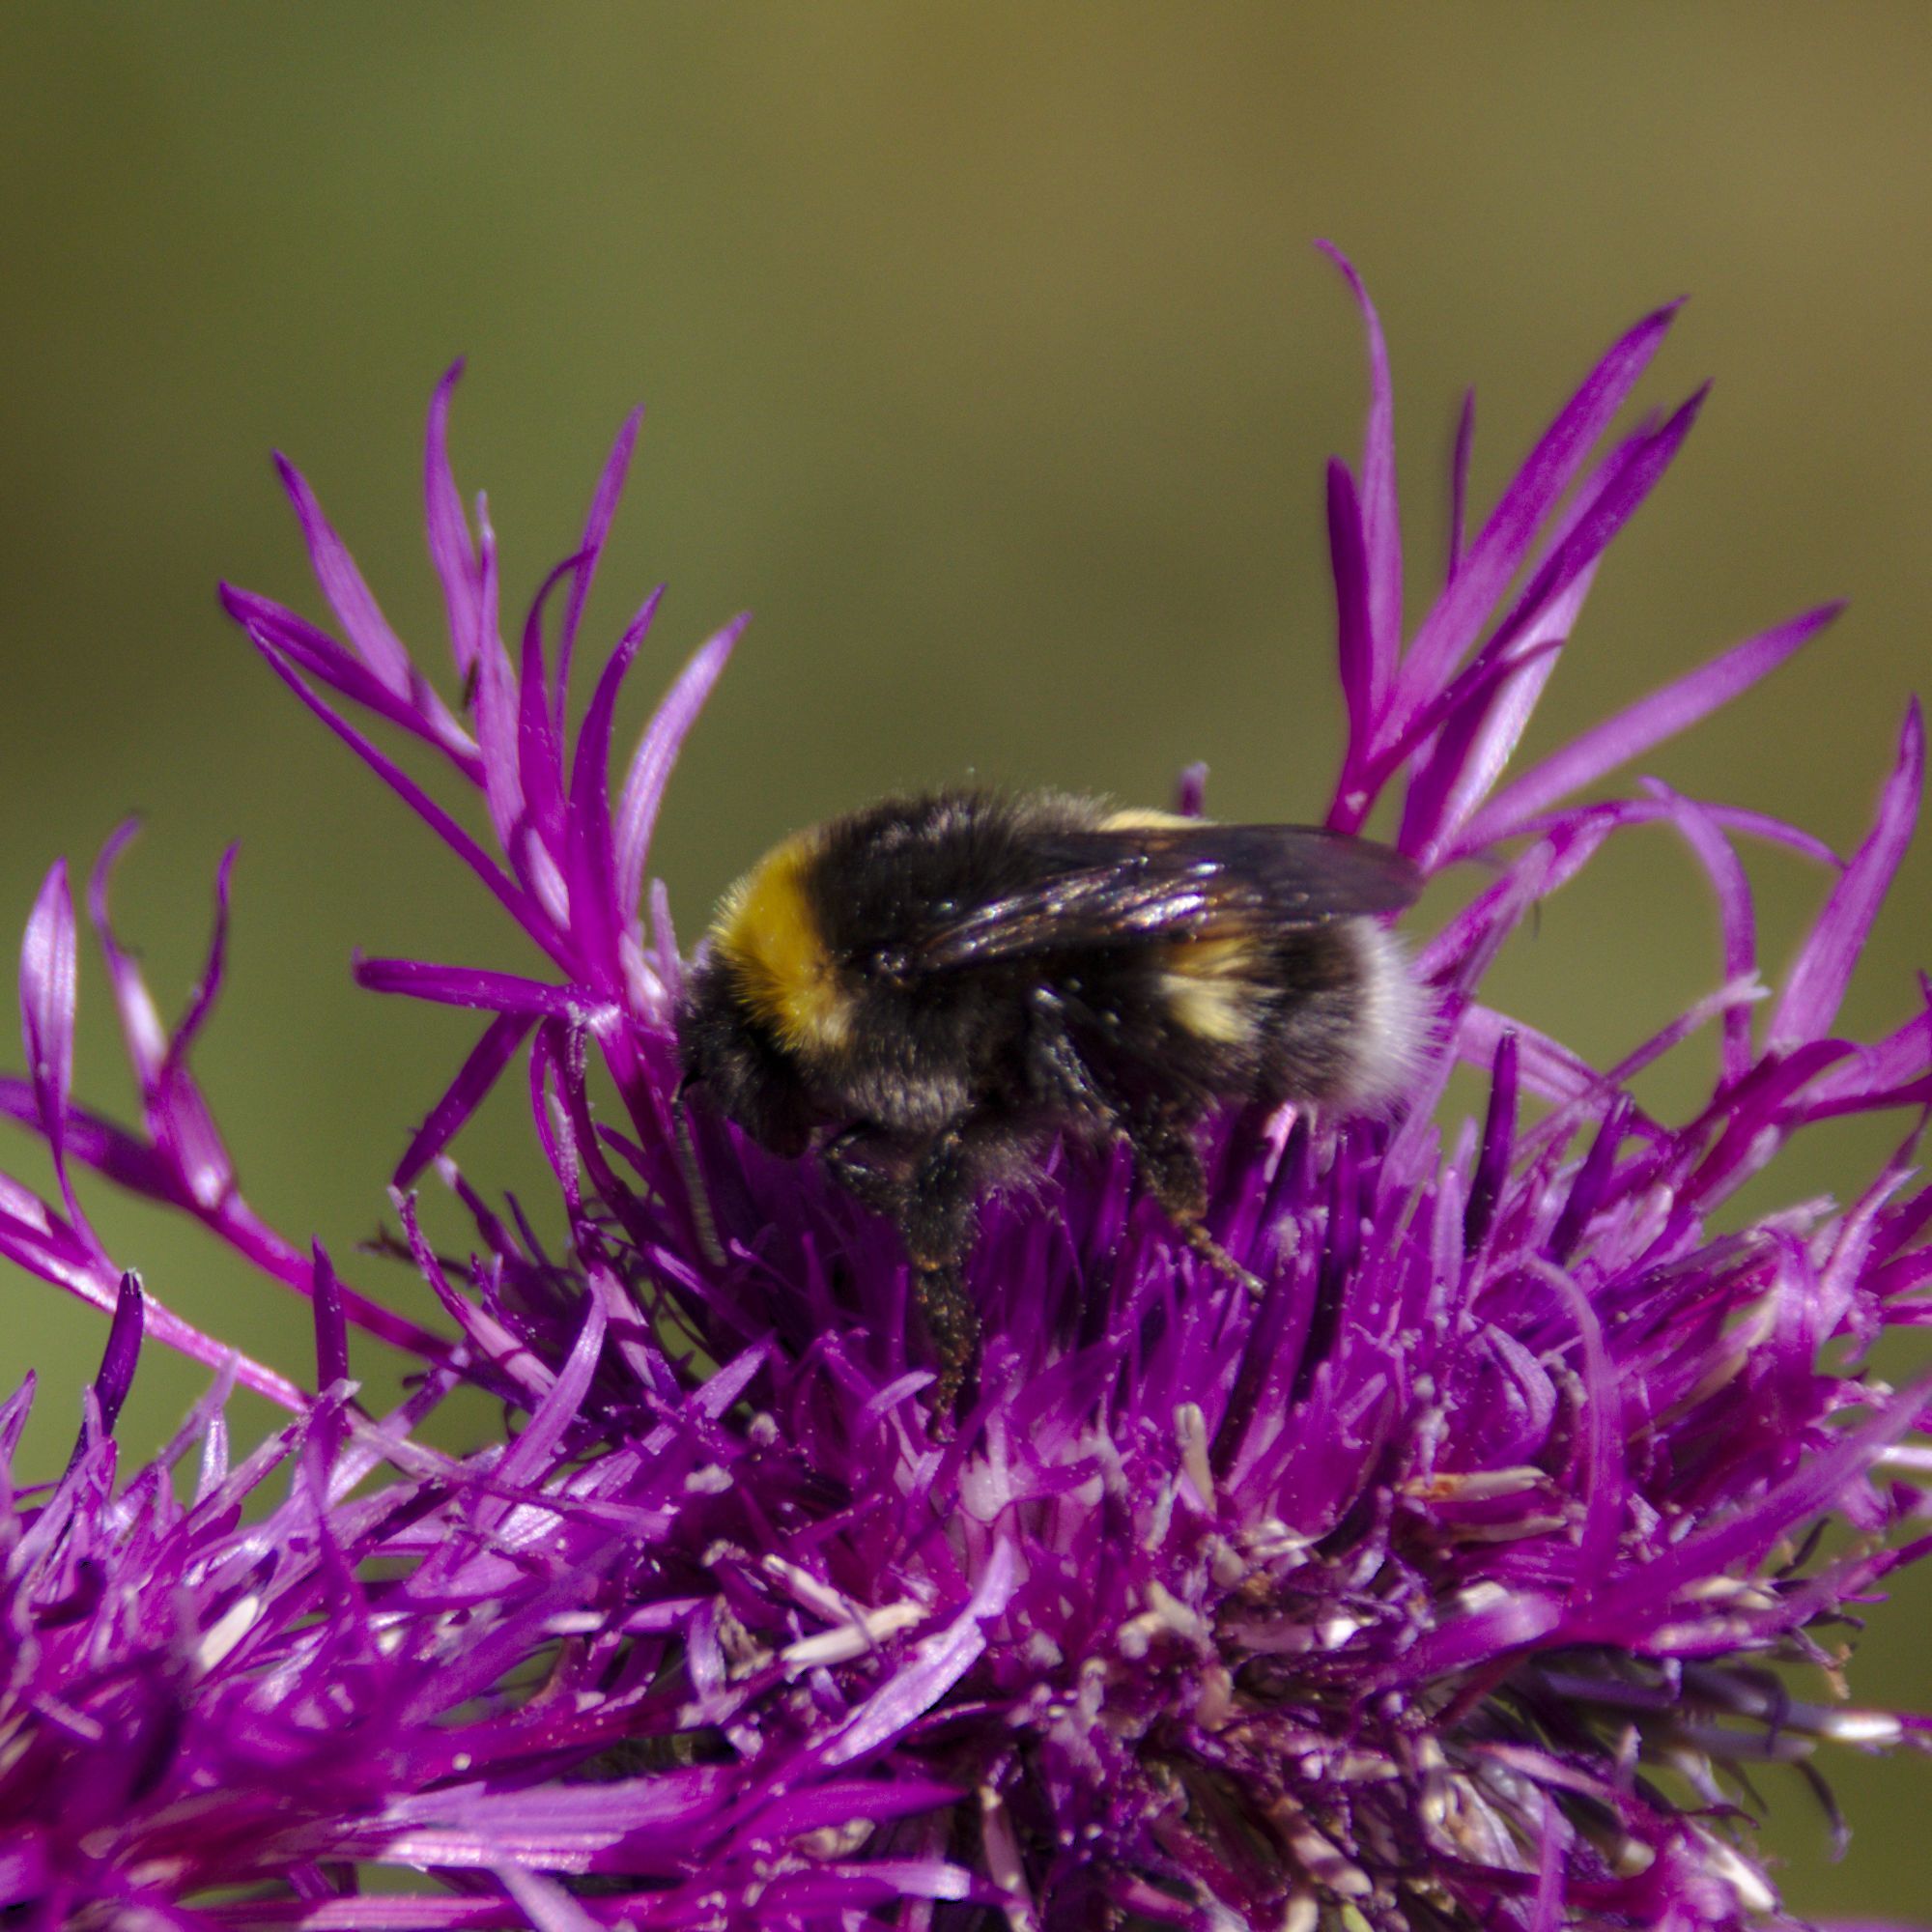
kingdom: Animalia
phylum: Arthropoda
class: Insecta
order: Hymenoptera
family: Apidae
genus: Bombus
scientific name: Bombus lucorum
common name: White-tailed bumblebee
